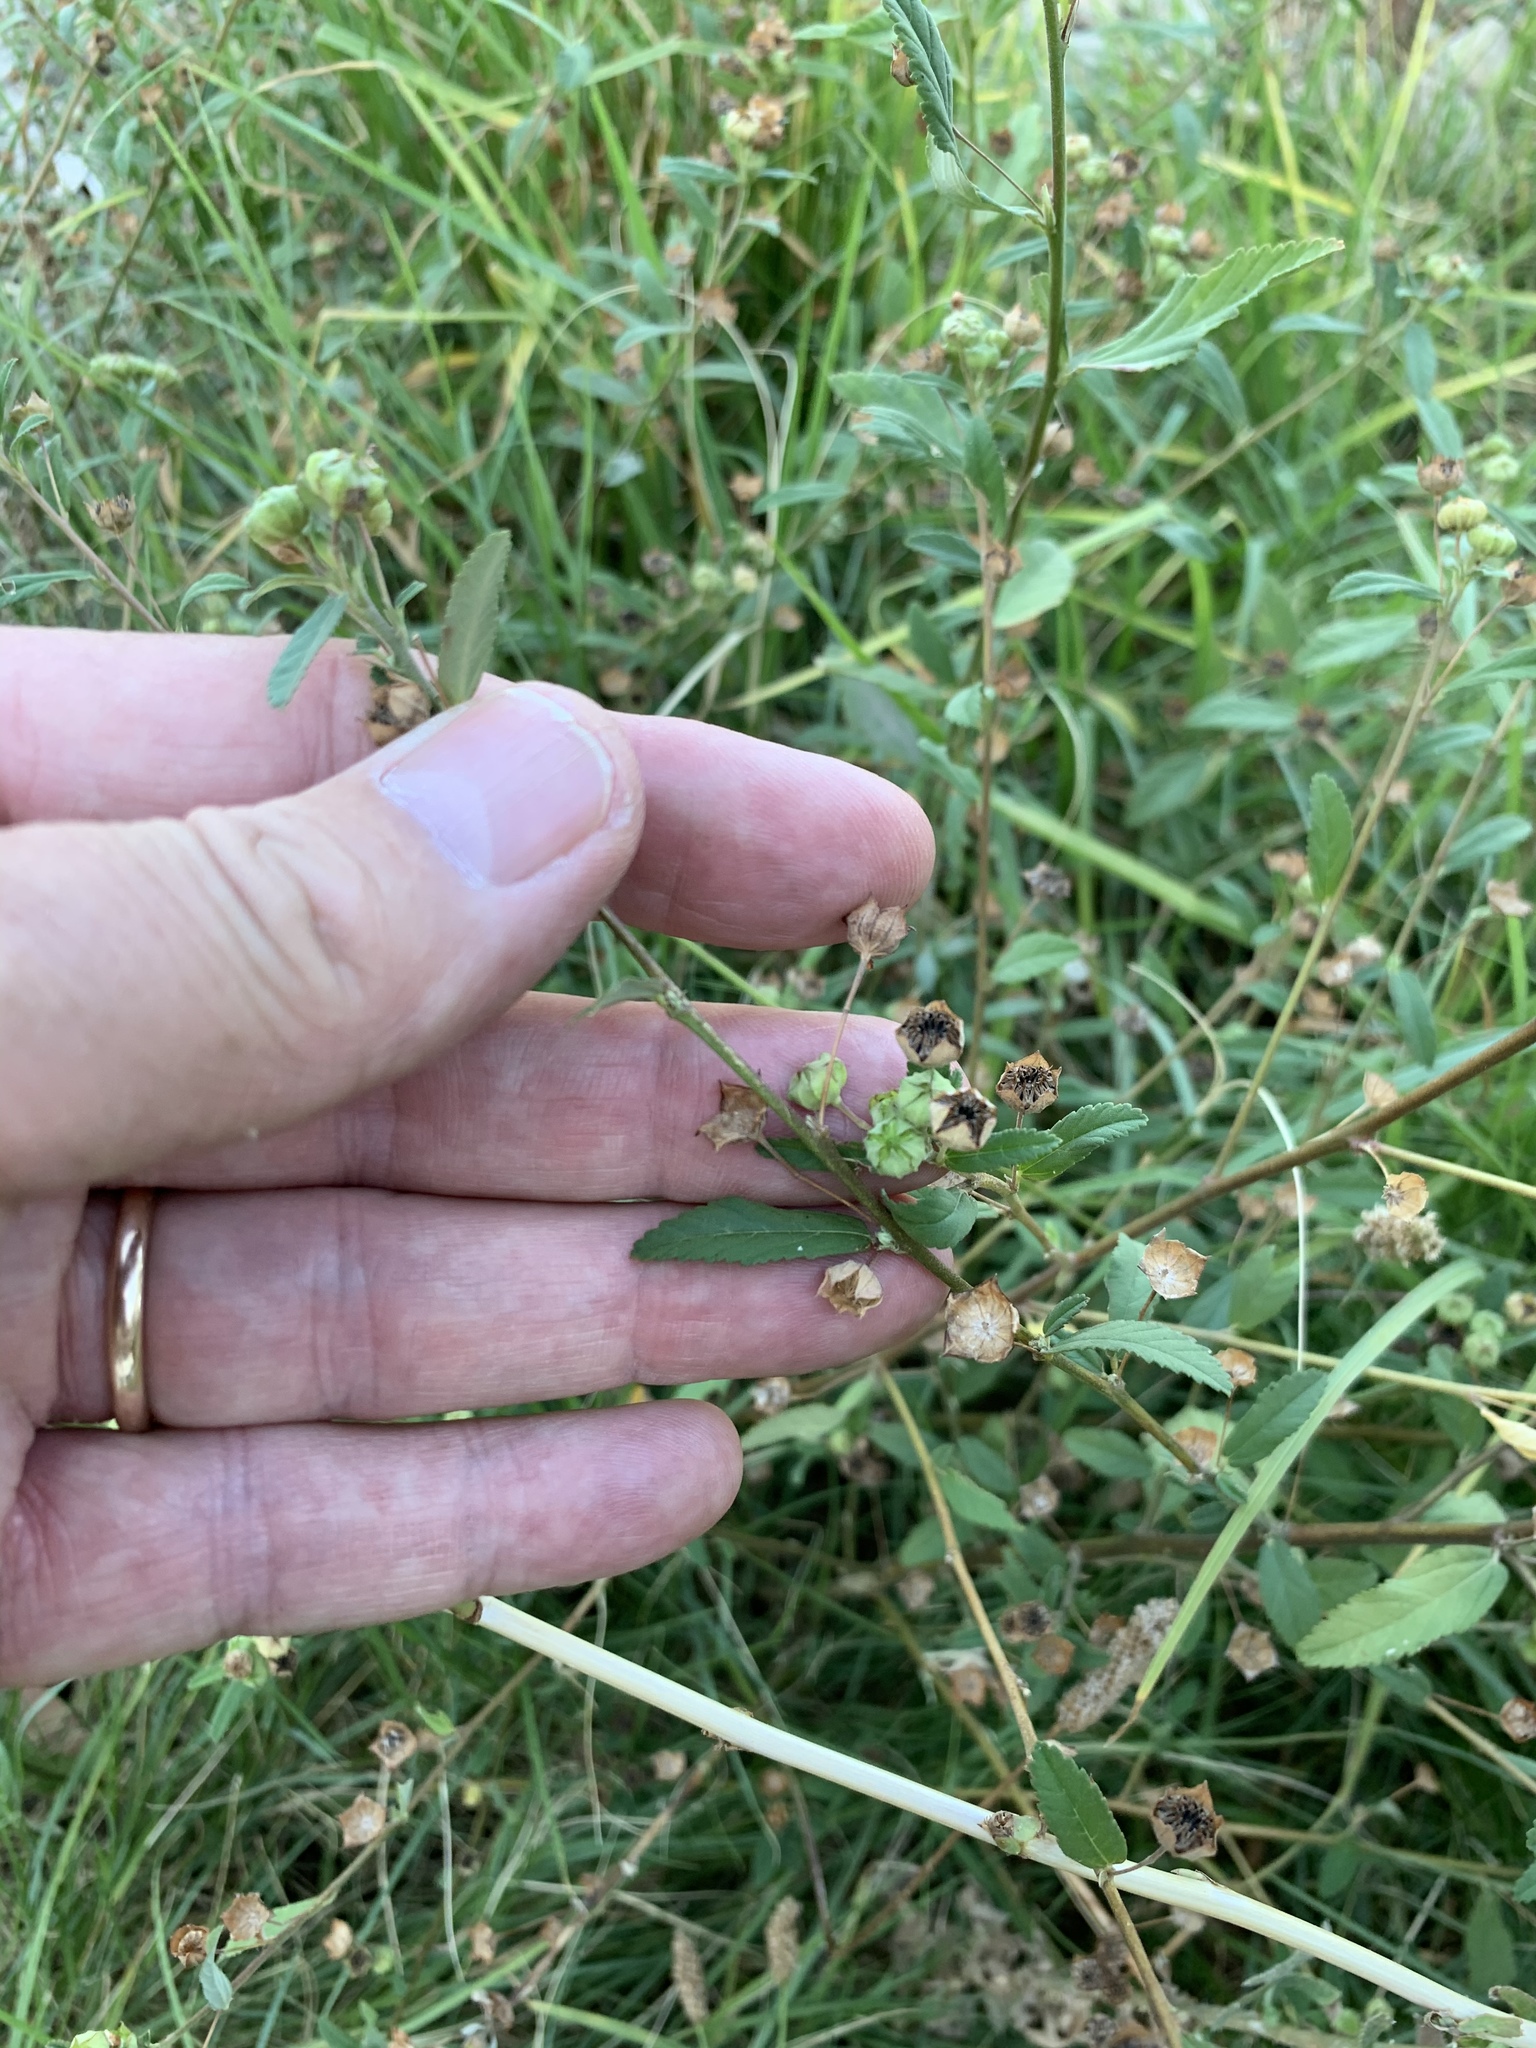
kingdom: Plantae
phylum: Tracheophyta
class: Magnoliopsida
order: Malvales
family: Malvaceae
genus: Sida
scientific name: Sida rhombifolia
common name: Queensland-hemp
